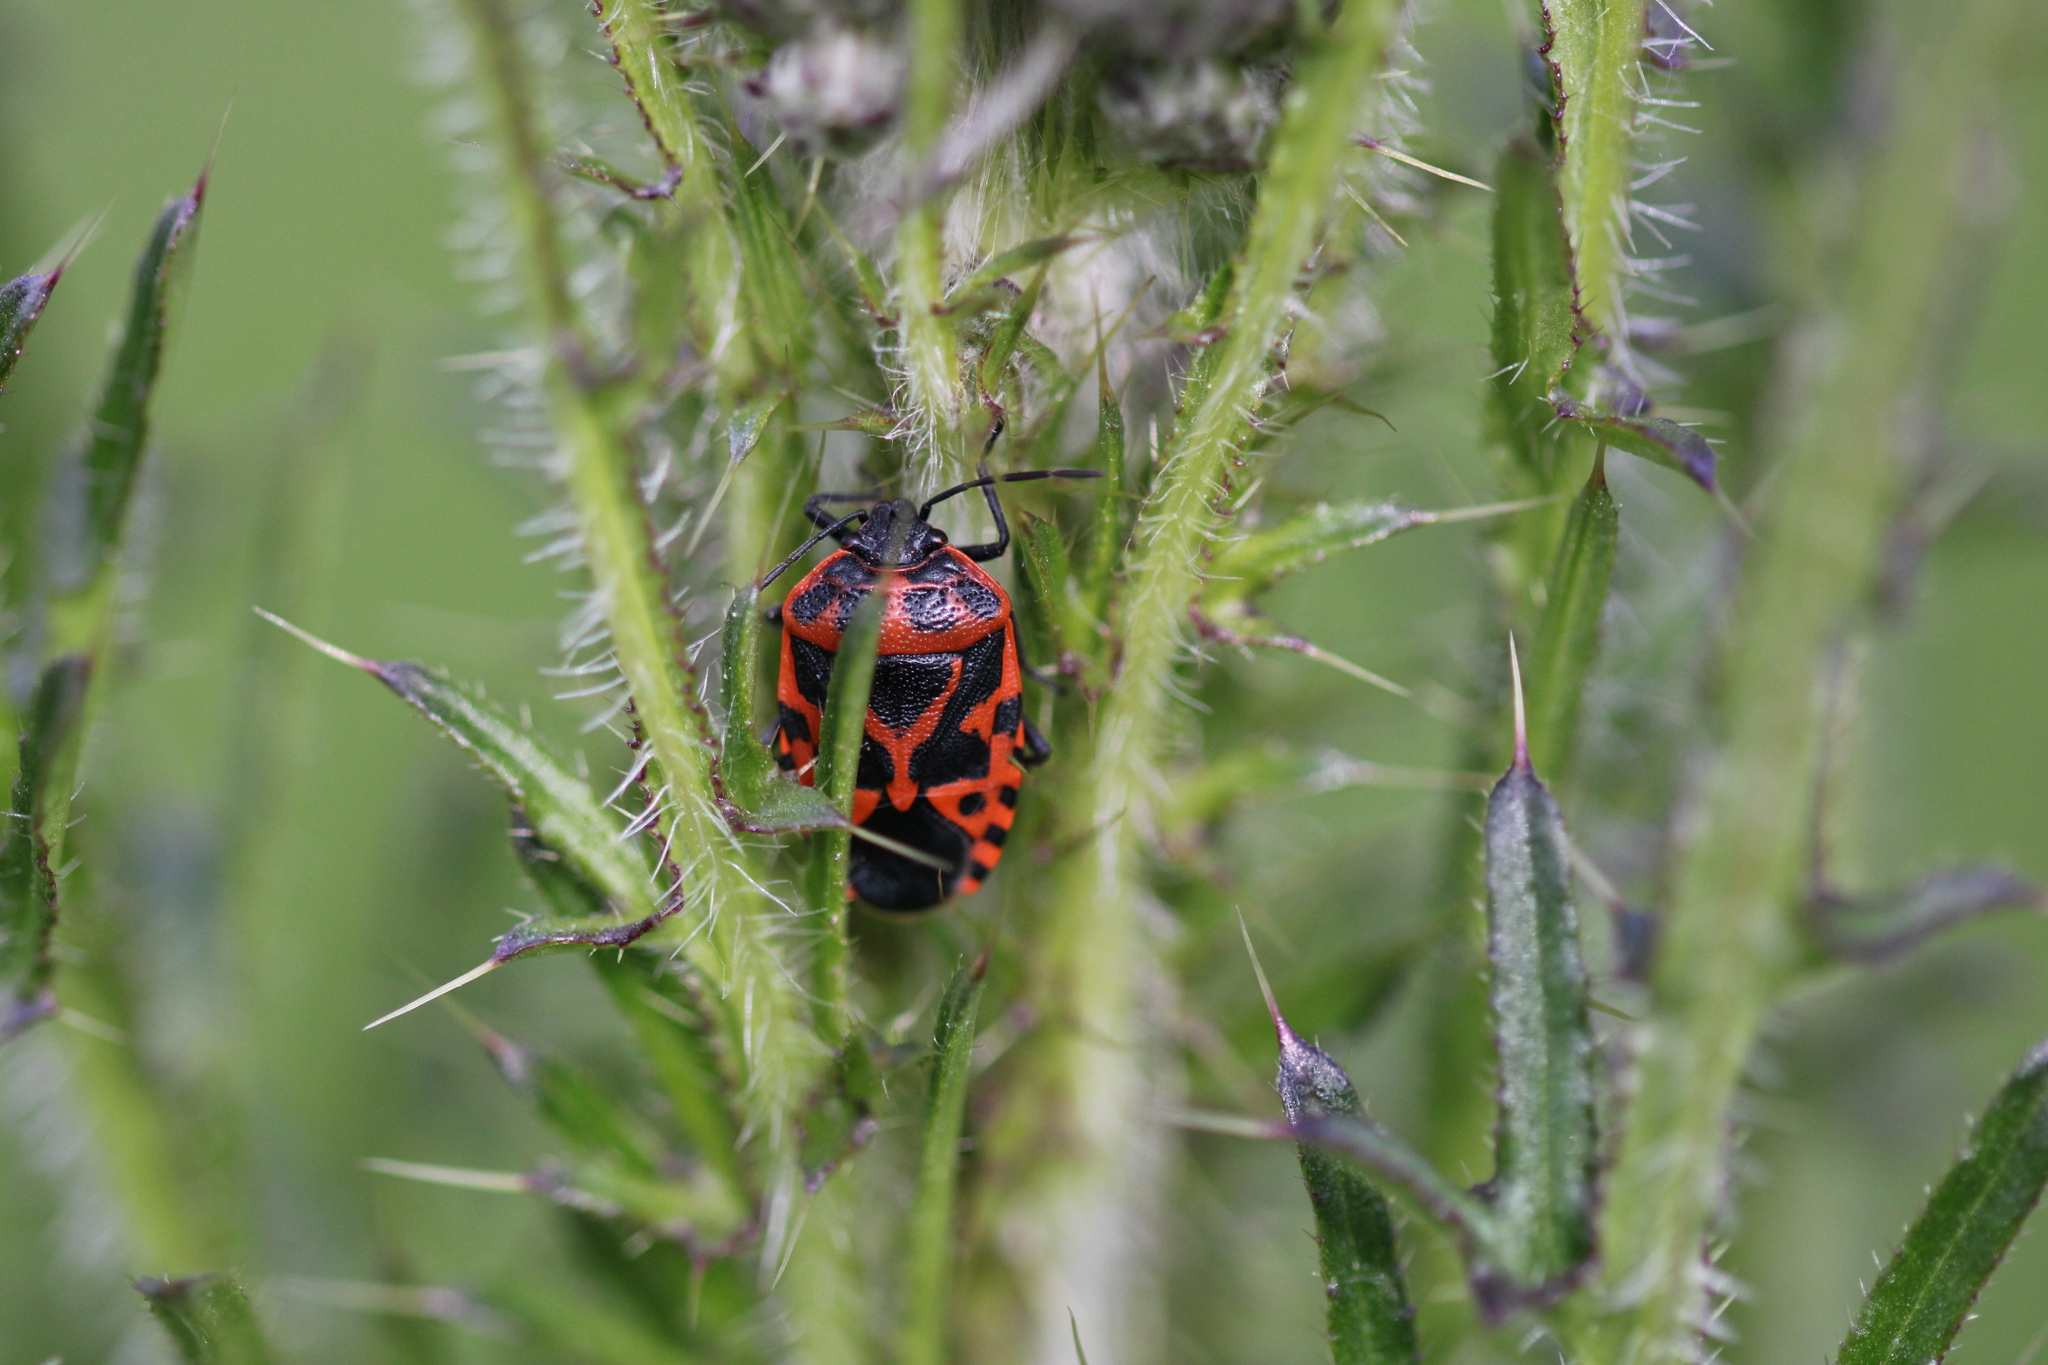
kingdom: Animalia
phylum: Arthropoda
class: Insecta
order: Hemiptera
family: Pentatomidae
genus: Eurydema
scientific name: Eurydema ventralis
